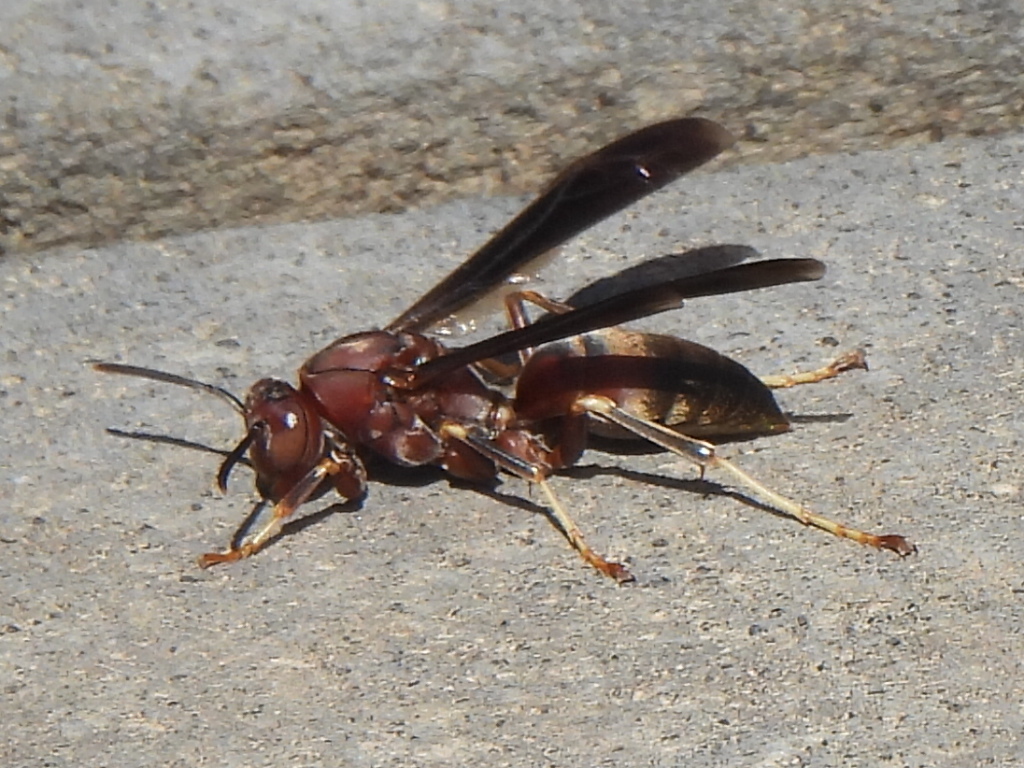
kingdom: Animalia
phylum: Arthropoda
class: Insecta
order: Hymenoptera
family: Eumenidae
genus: Polistes
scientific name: Polistes metricus
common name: Metric paper wasp
